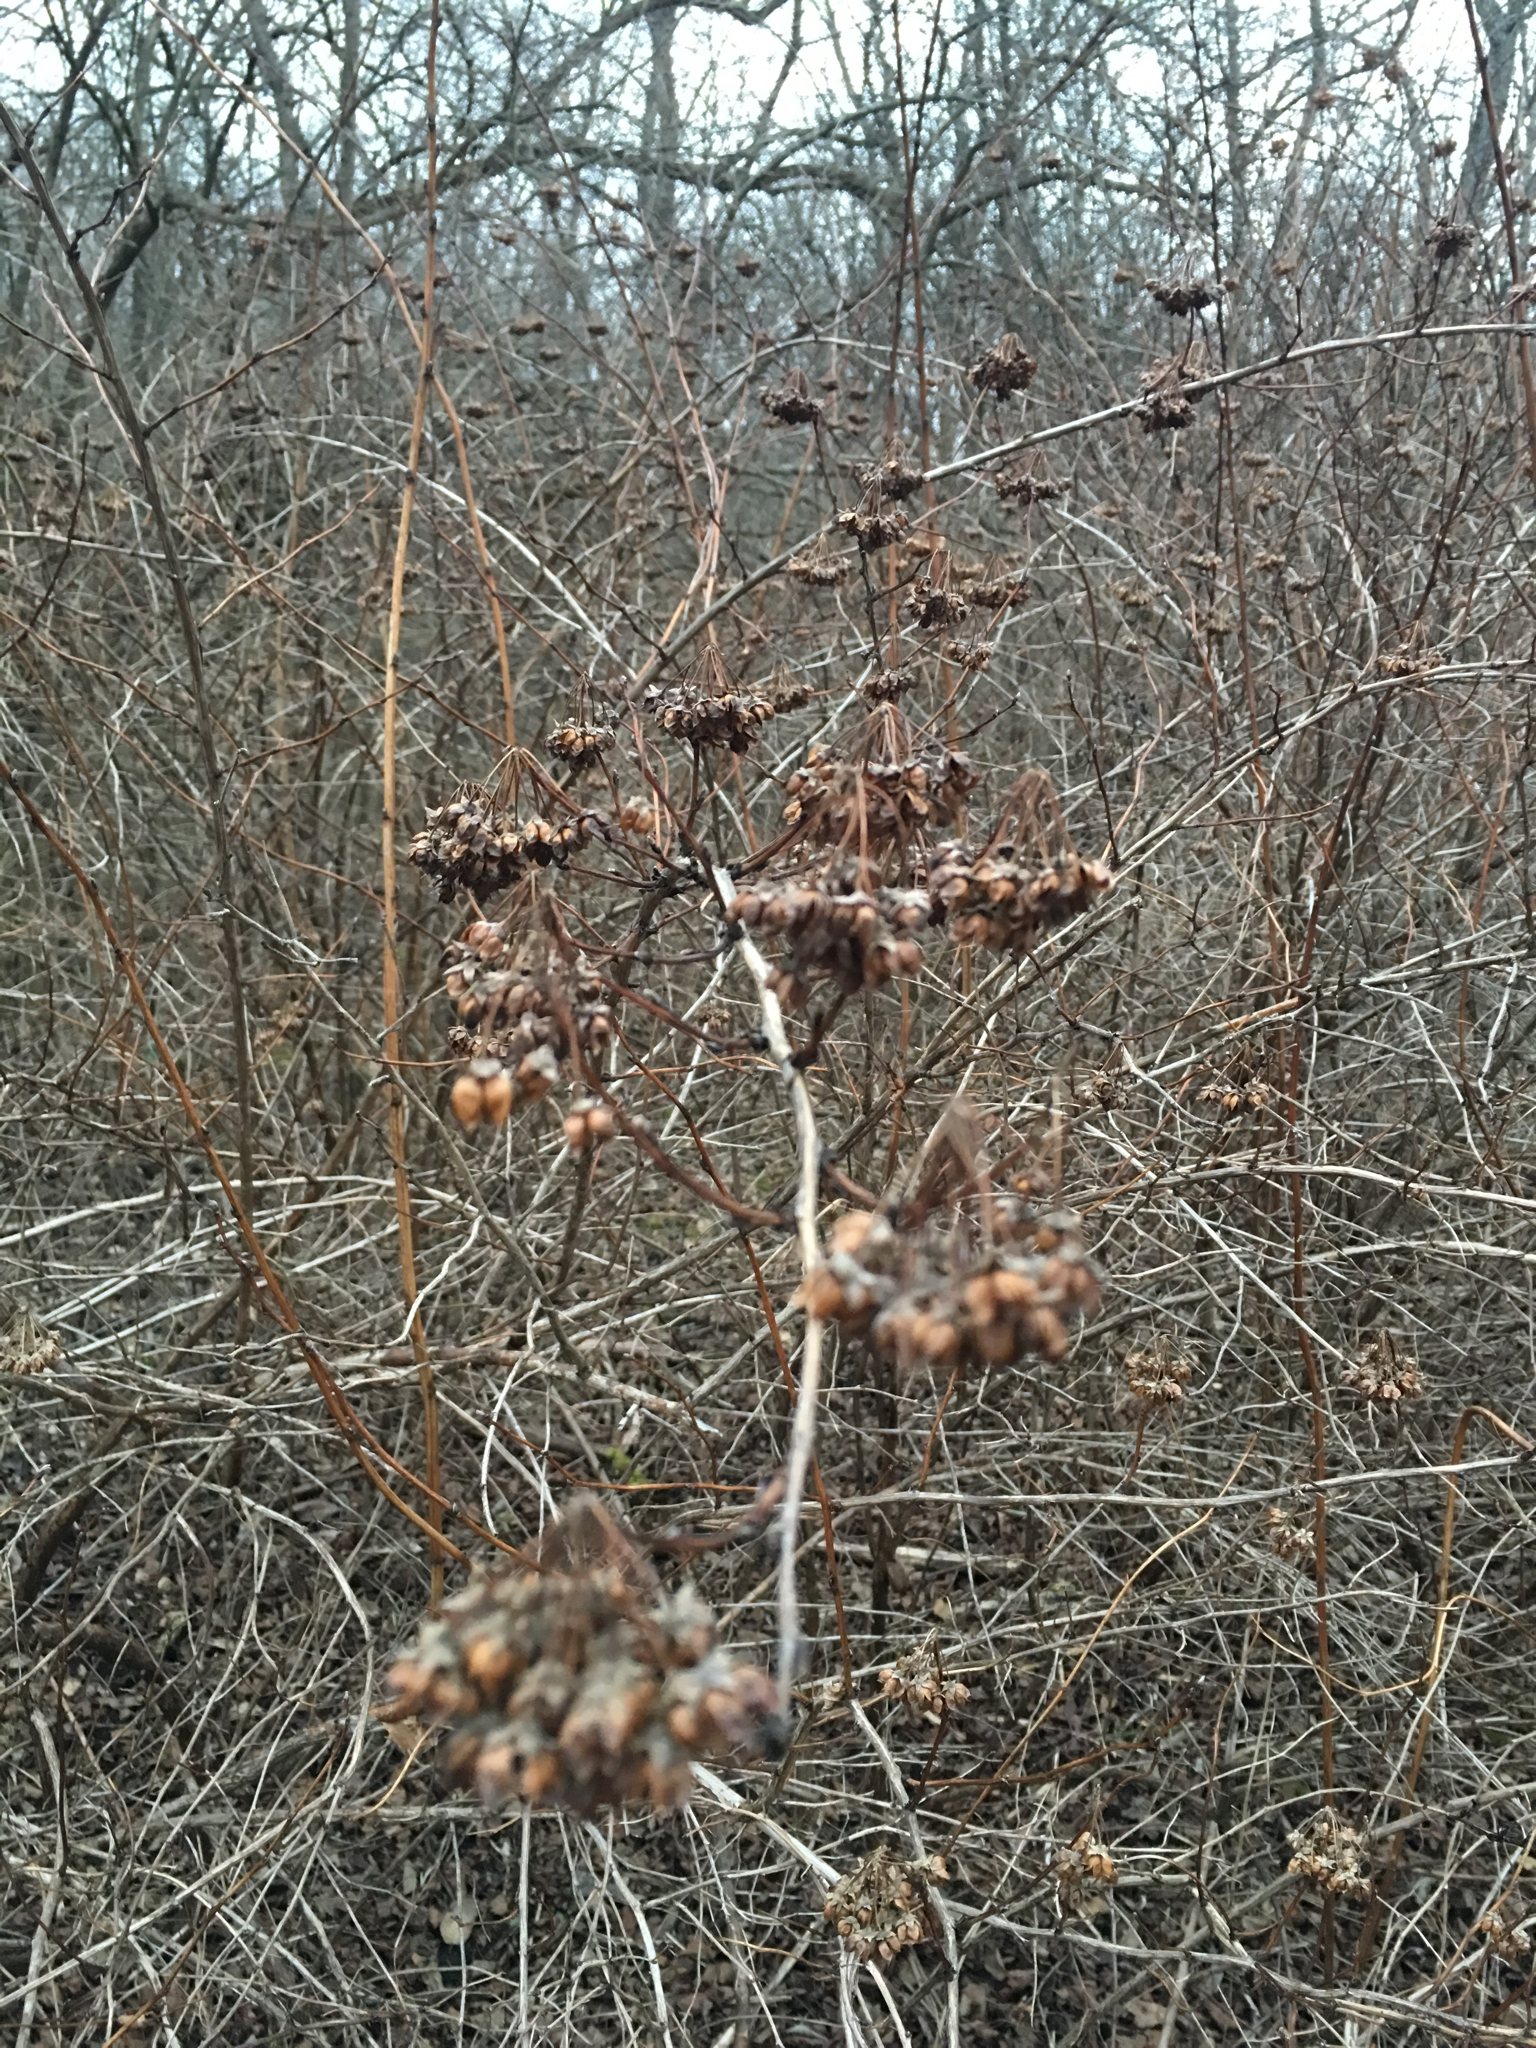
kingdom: Plantae
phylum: Tracheophyta
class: Magnoliopsida
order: Rosales
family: Rosaceae
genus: Physocarpus
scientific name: Physocarpus opulifolius
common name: Ninebark
